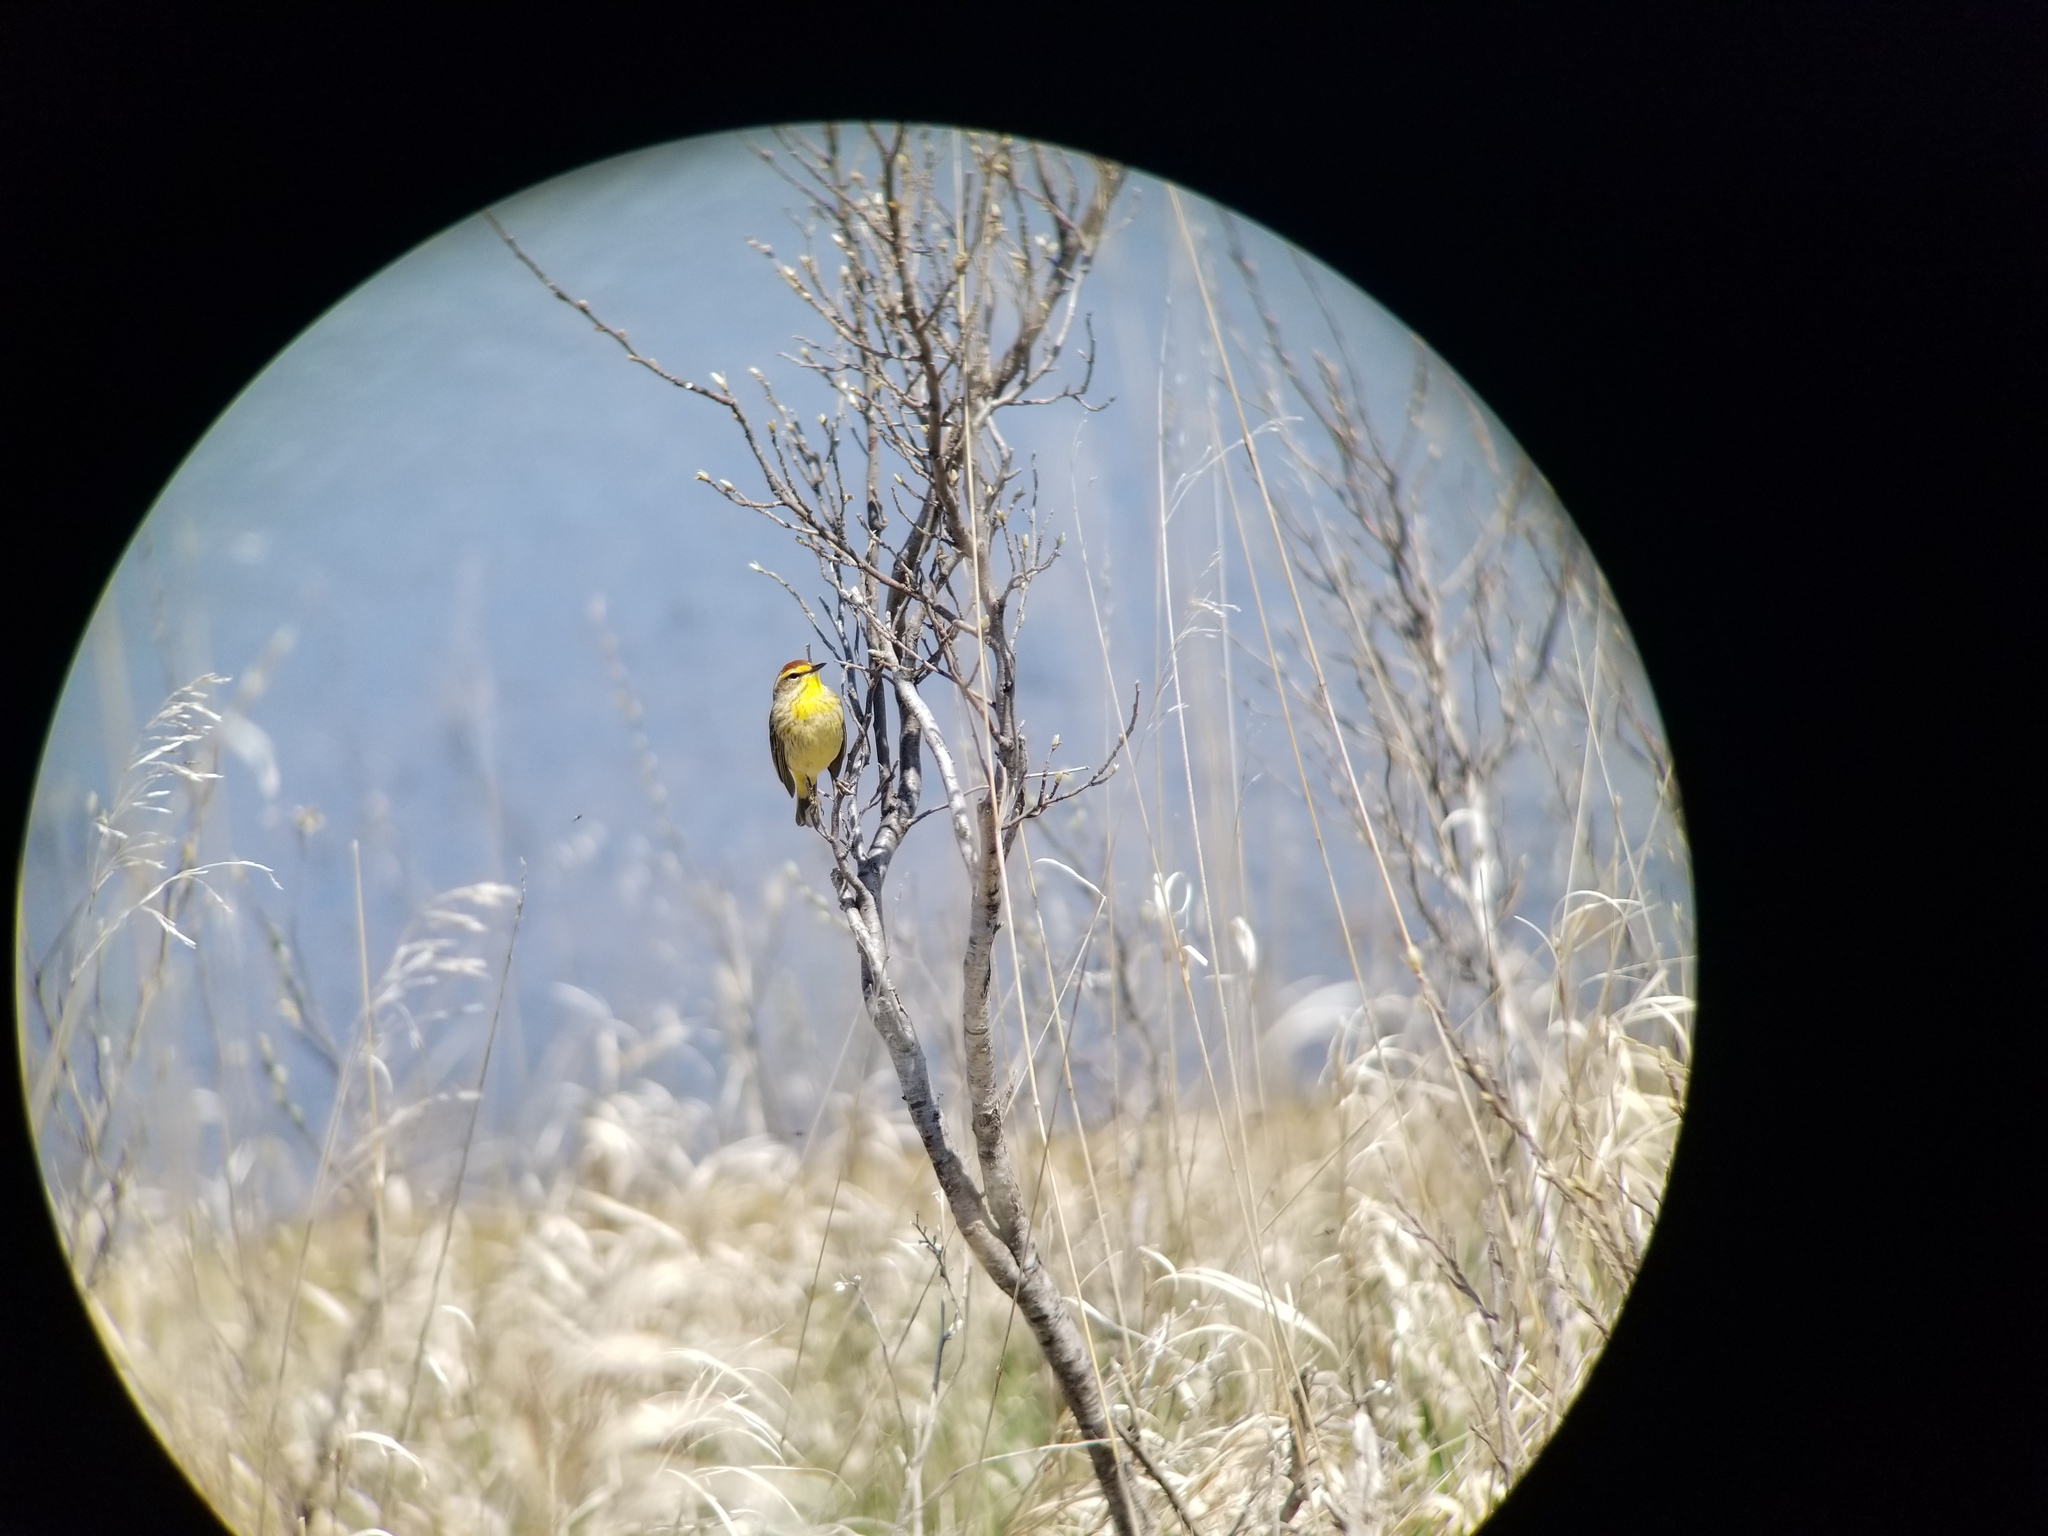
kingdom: Animalia
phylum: Chordata
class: Aves
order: Passeriformes
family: Parulidae
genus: Setophaga
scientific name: Setophaga palmarum
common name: Palm warbler
